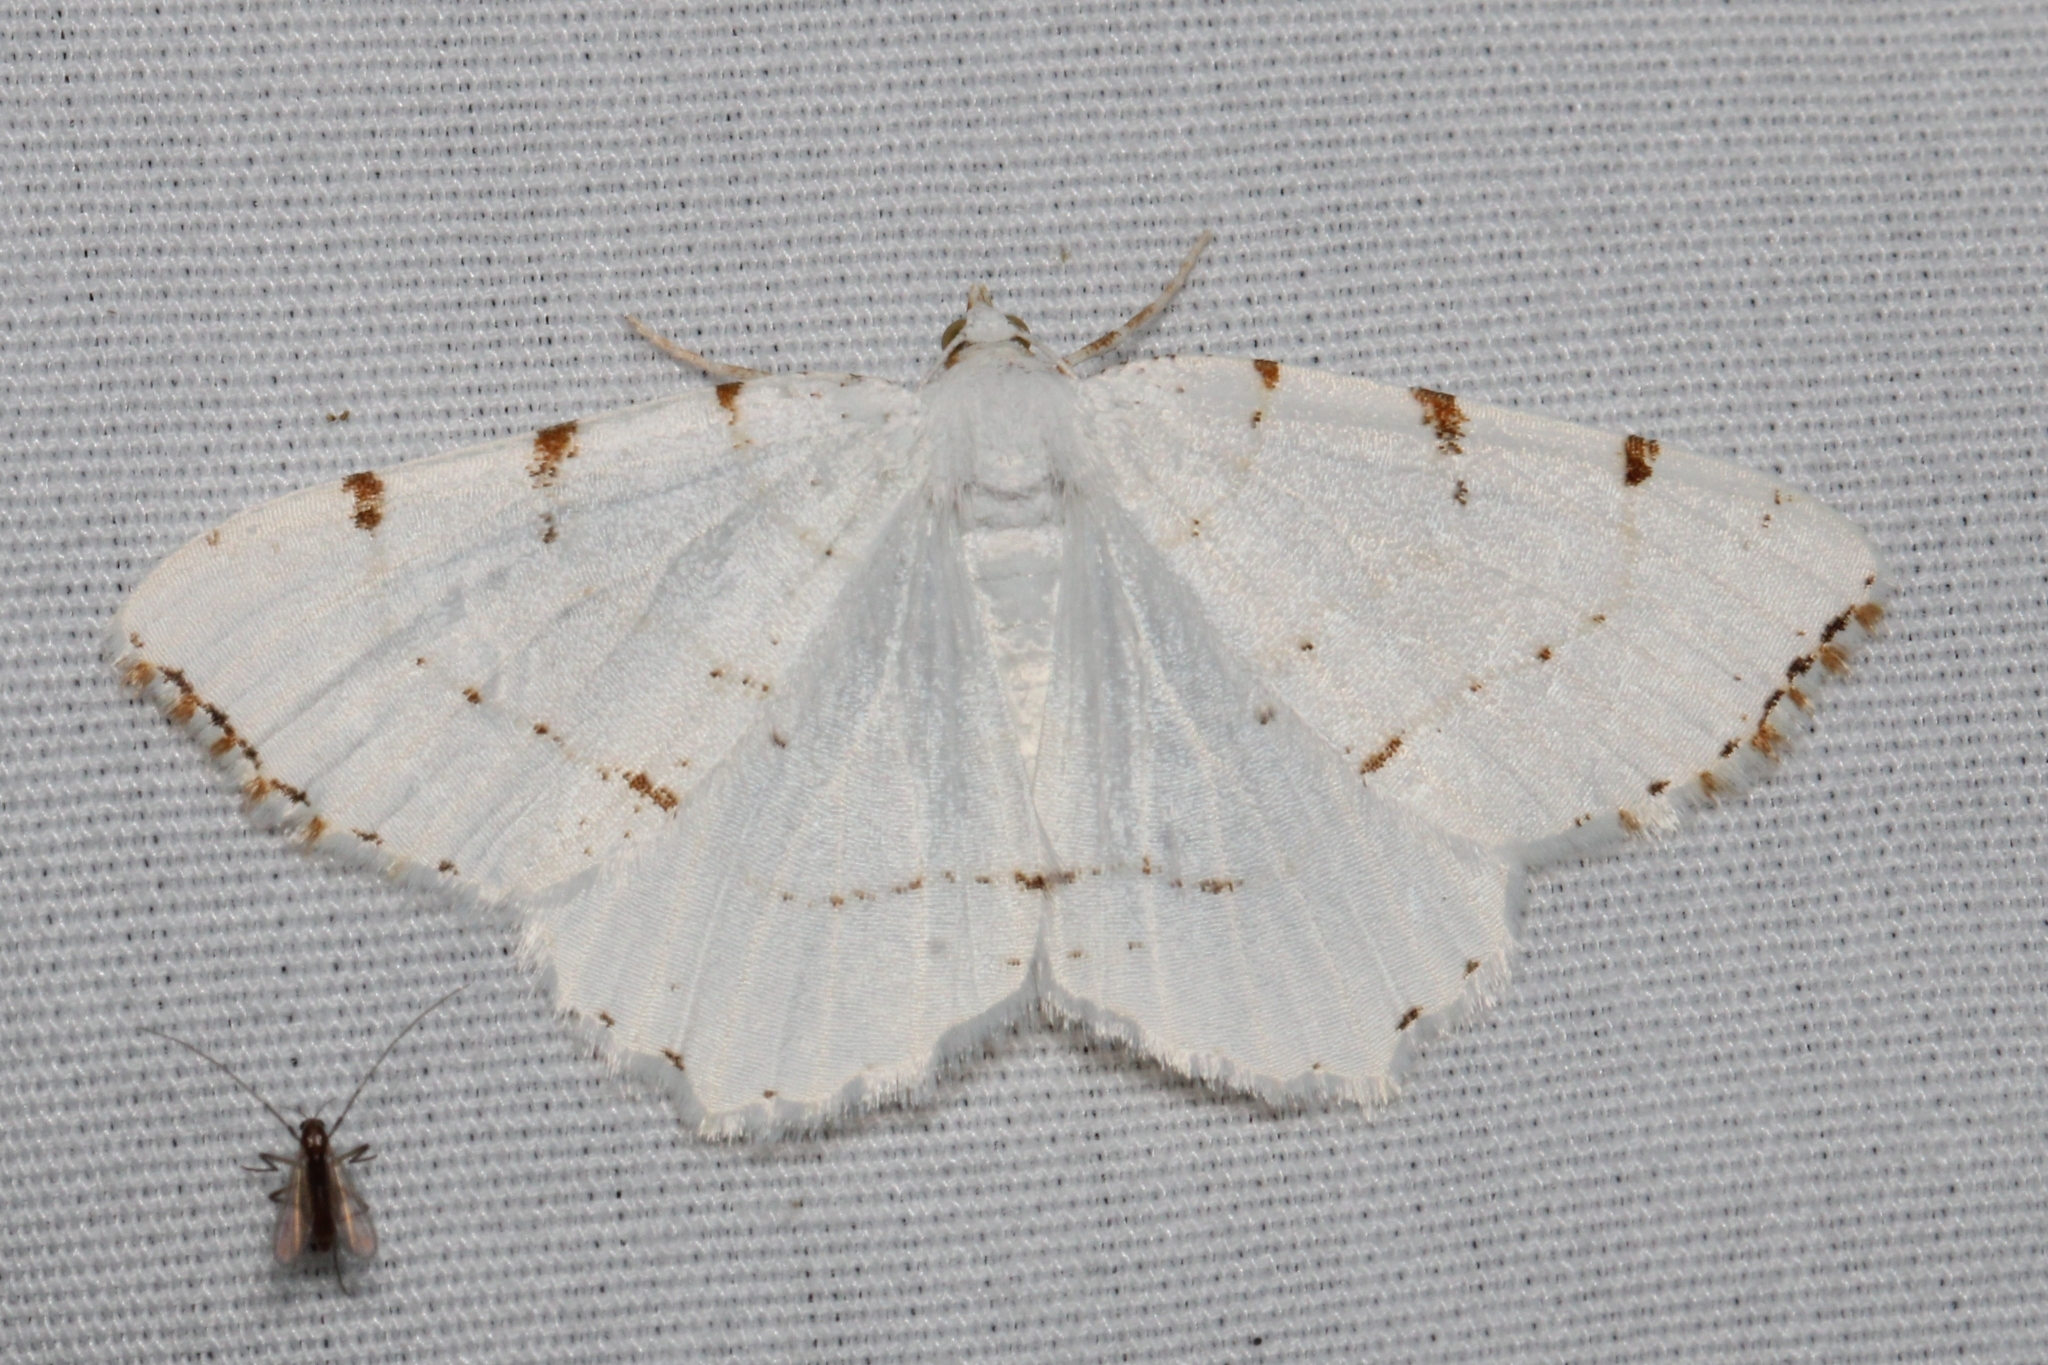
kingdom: Animalia
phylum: Arthropoda
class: Insecta
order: Lepidoptera
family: Geometridae
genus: Macaria
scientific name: Macaria pustularia
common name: Lesser maple spanworm moth
